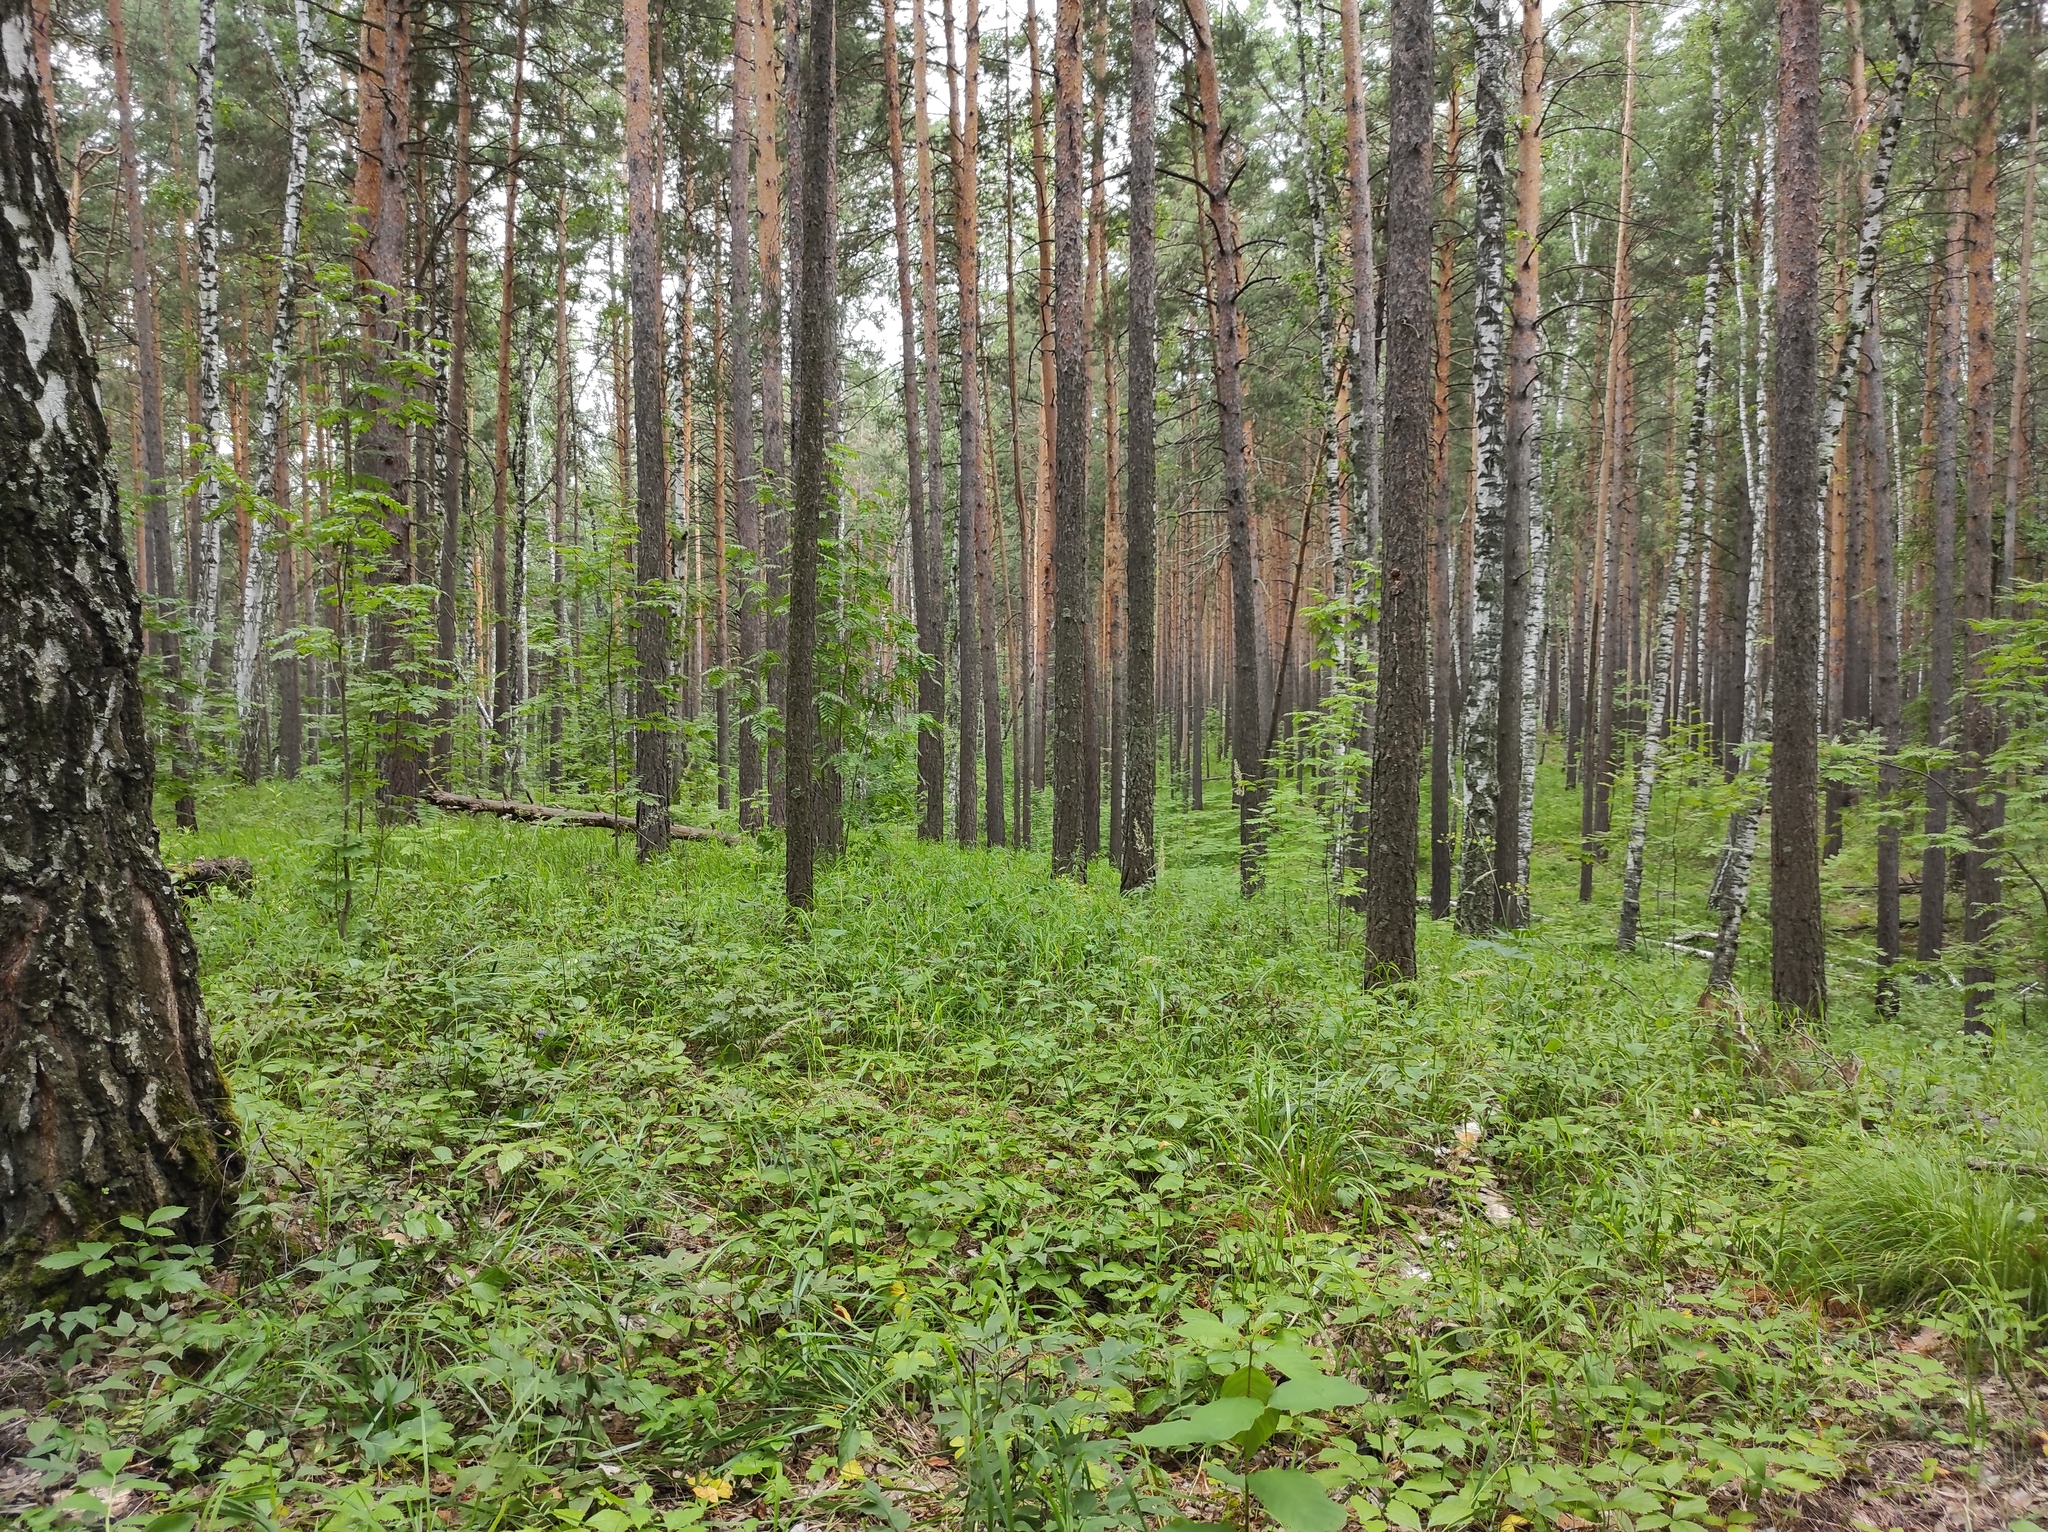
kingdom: Plantae
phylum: Tracheophyta
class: Pinopsida
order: Pinales
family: Pinaceae
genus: Pinus
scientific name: Pinus sylvestris
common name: Scots pine
